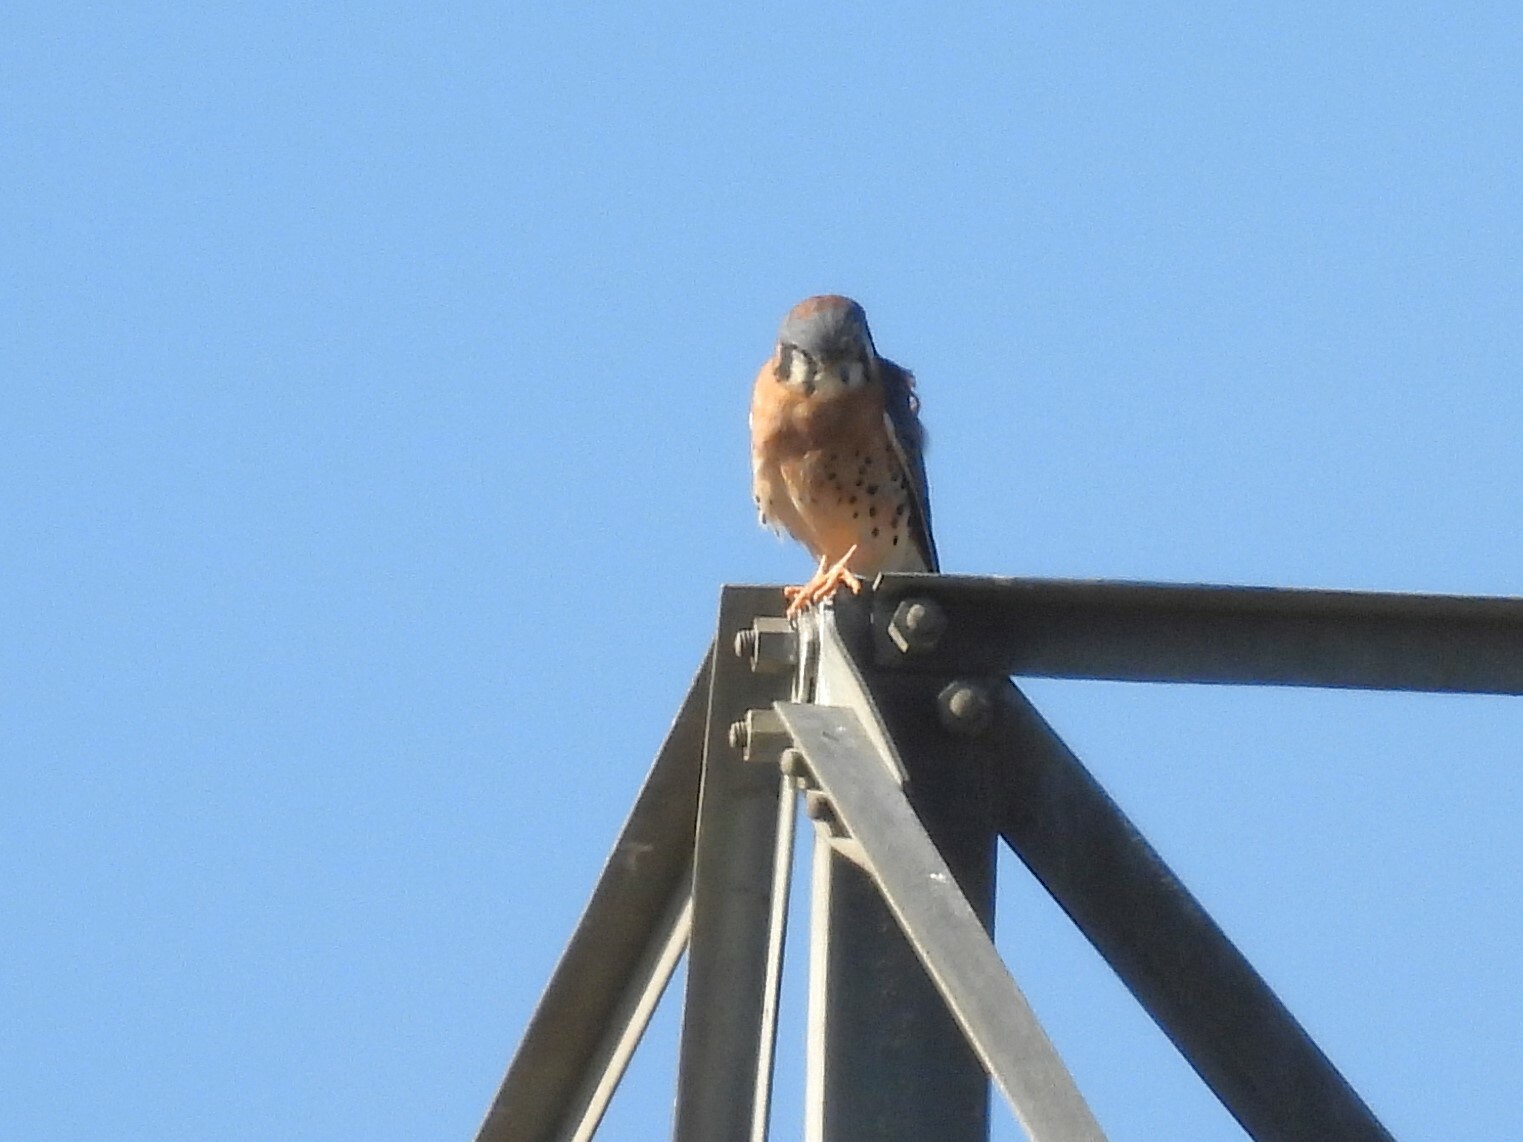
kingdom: Animalia
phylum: Chordata
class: Aves
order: Falconiformes
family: Falconidae
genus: Falco
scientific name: Falco sparverius
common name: American kestrel
